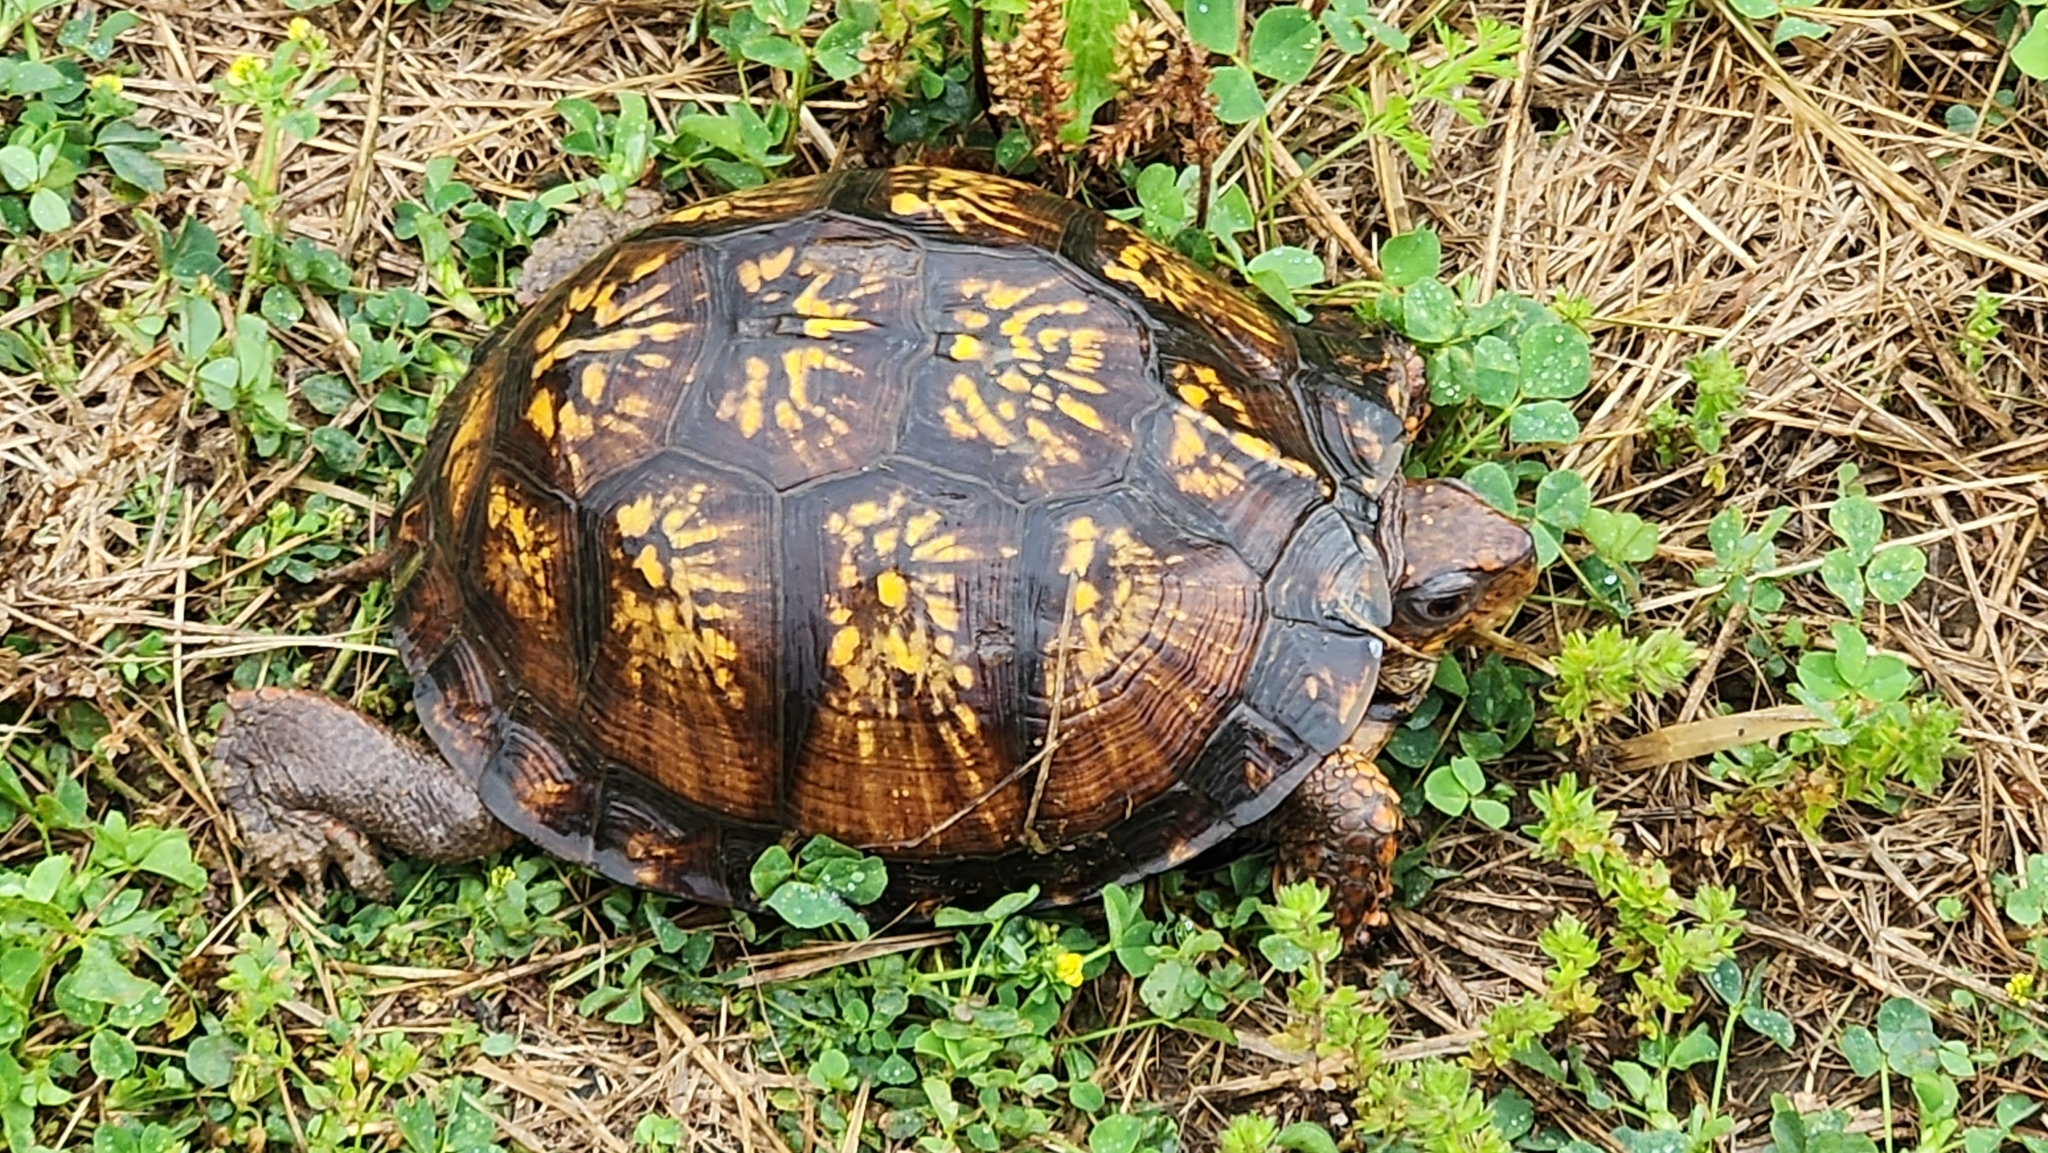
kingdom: Animalia
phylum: Chordata
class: Testudines
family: Emydidae
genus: Terrapene
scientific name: Terrapene carolina
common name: Common box turtle
